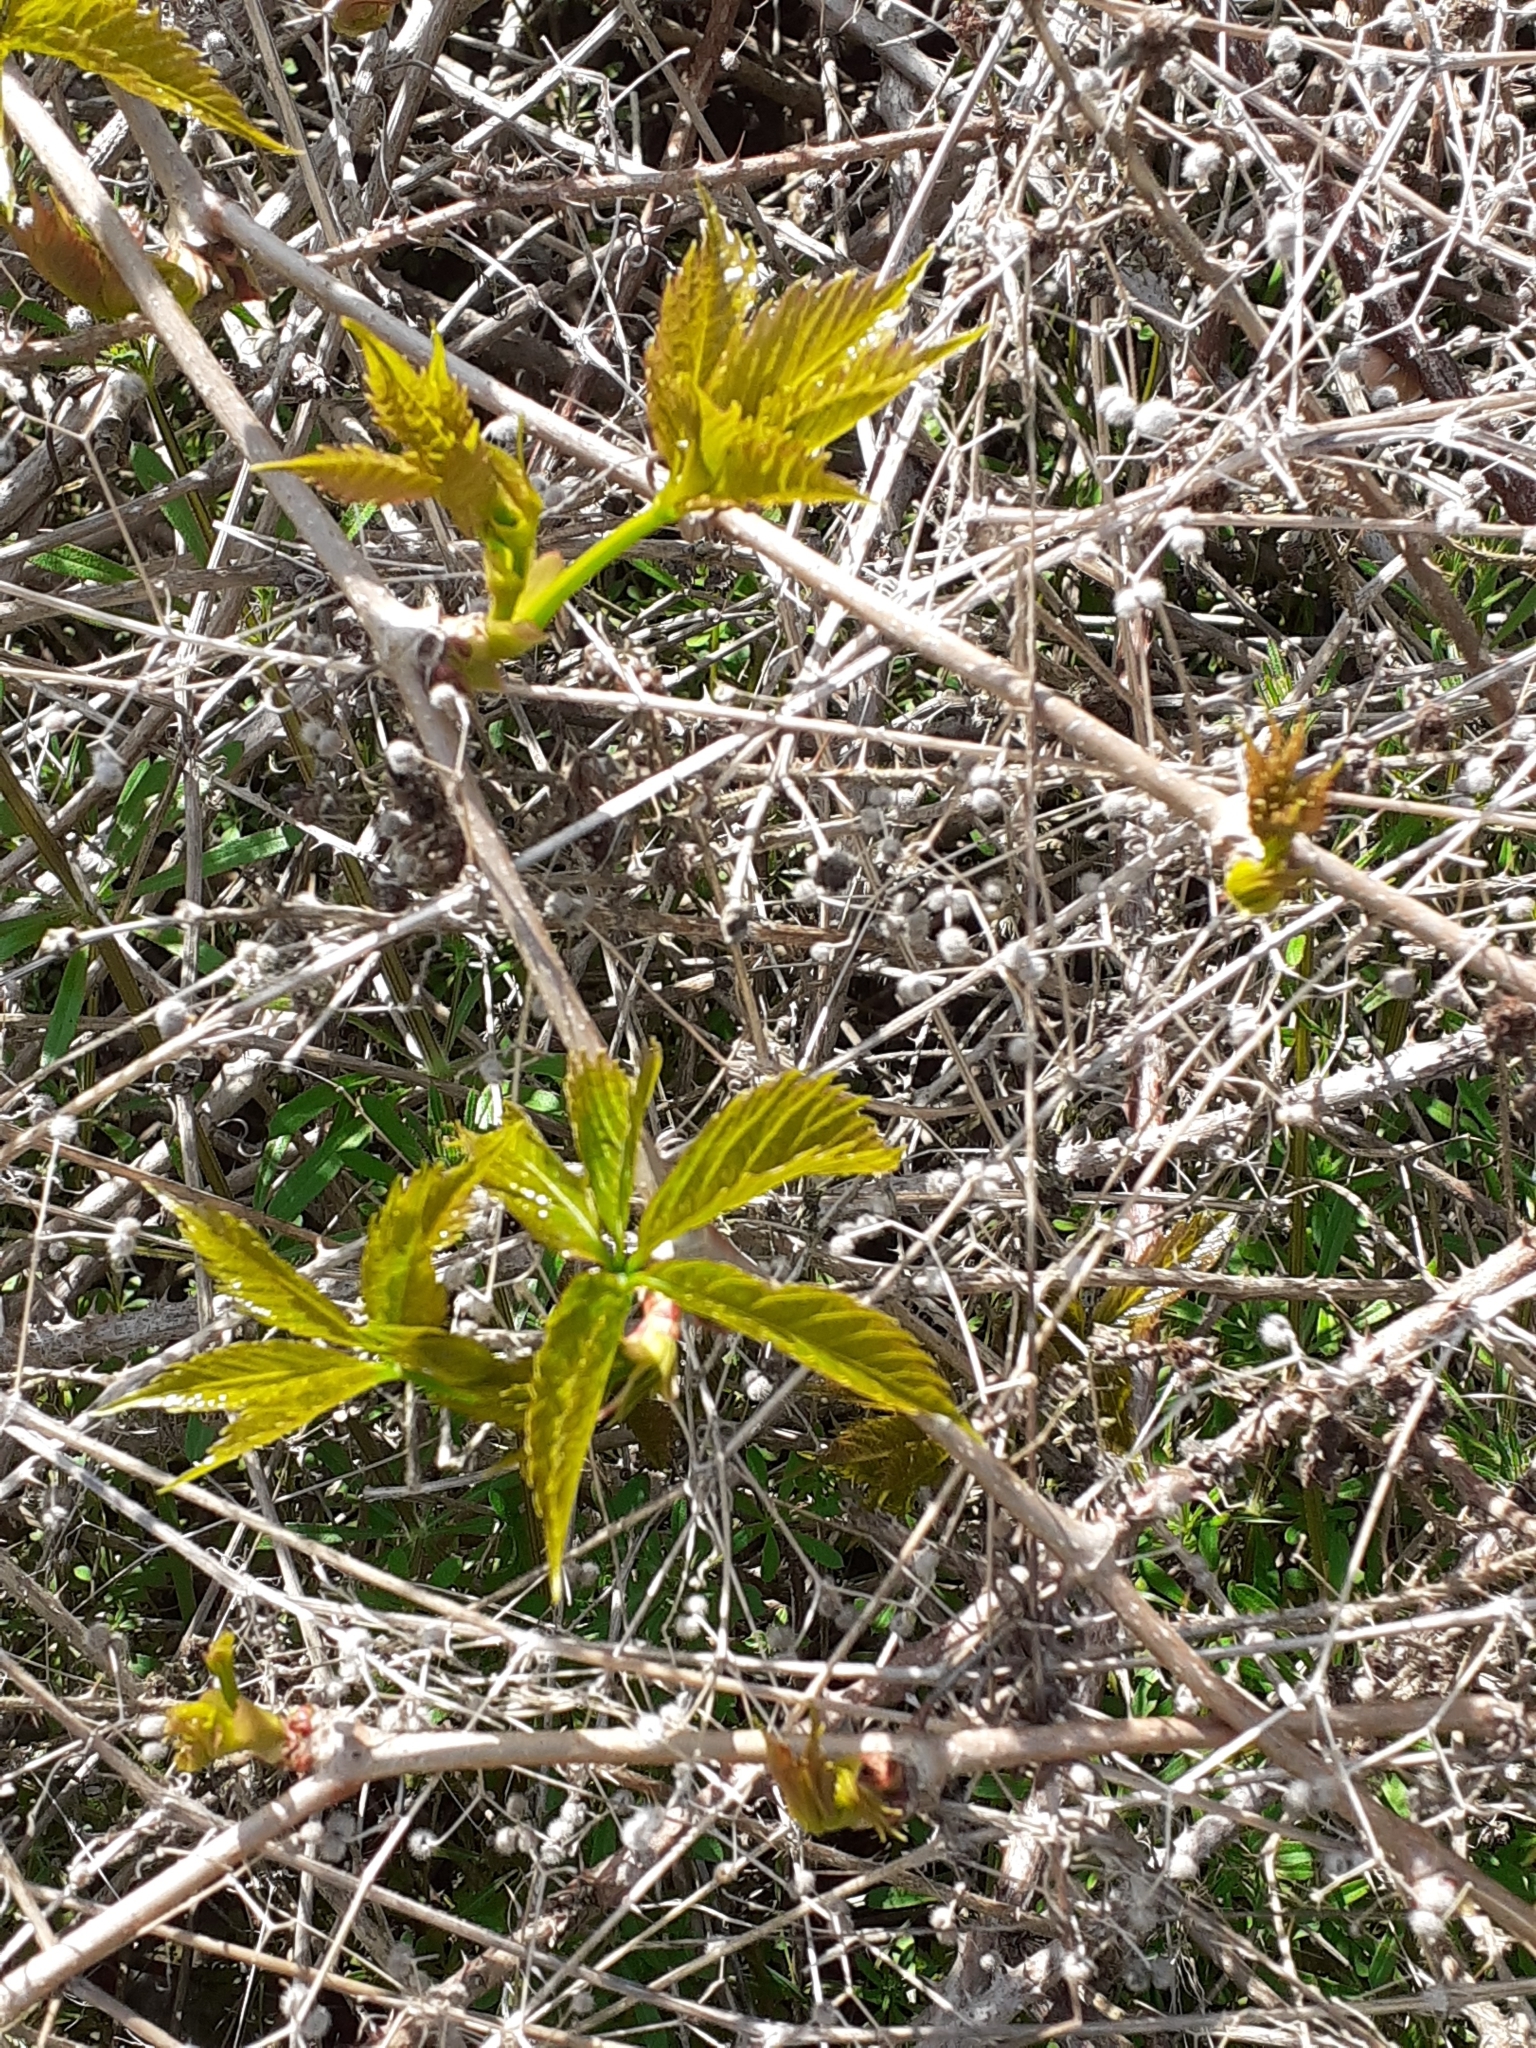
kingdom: Plantae
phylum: Tracheophyta
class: Magnoliopsida
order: Vitales
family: Vitaceae
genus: Parthenocissus
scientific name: Parthenocissus quinquefolia
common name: Virginia-creeper
